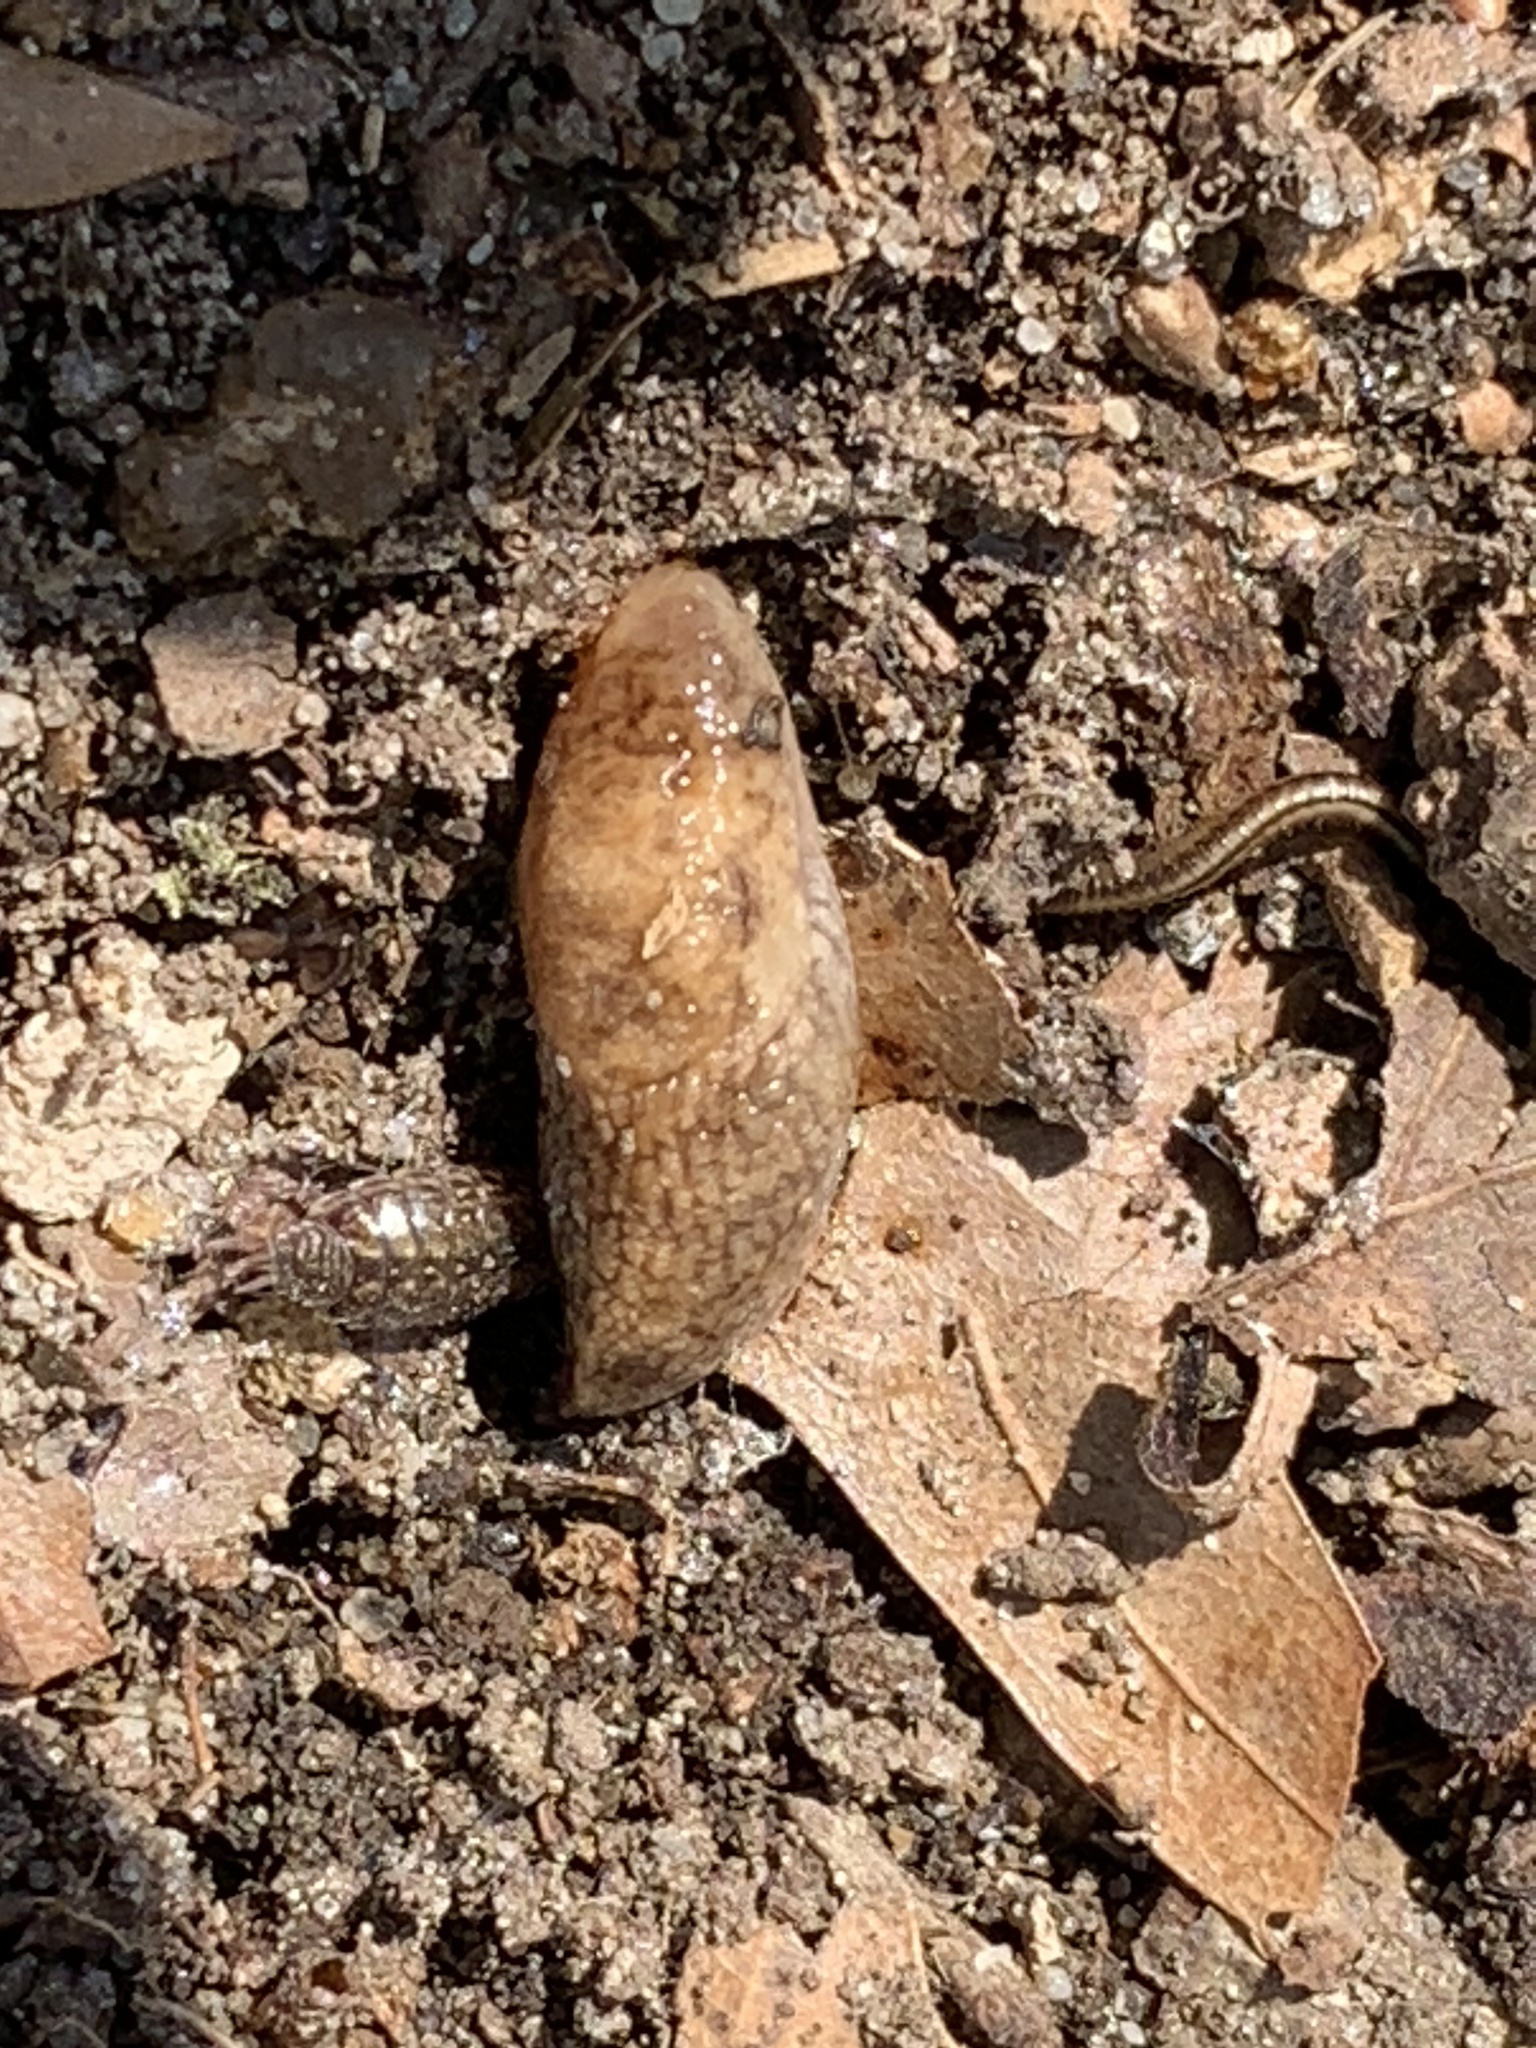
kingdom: Animalia
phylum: Mollusca
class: Gastropoda
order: Stylommatophora
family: Agriolimacidae
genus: Deroceras
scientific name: Deroceras reticulatum
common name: Gray field slug
